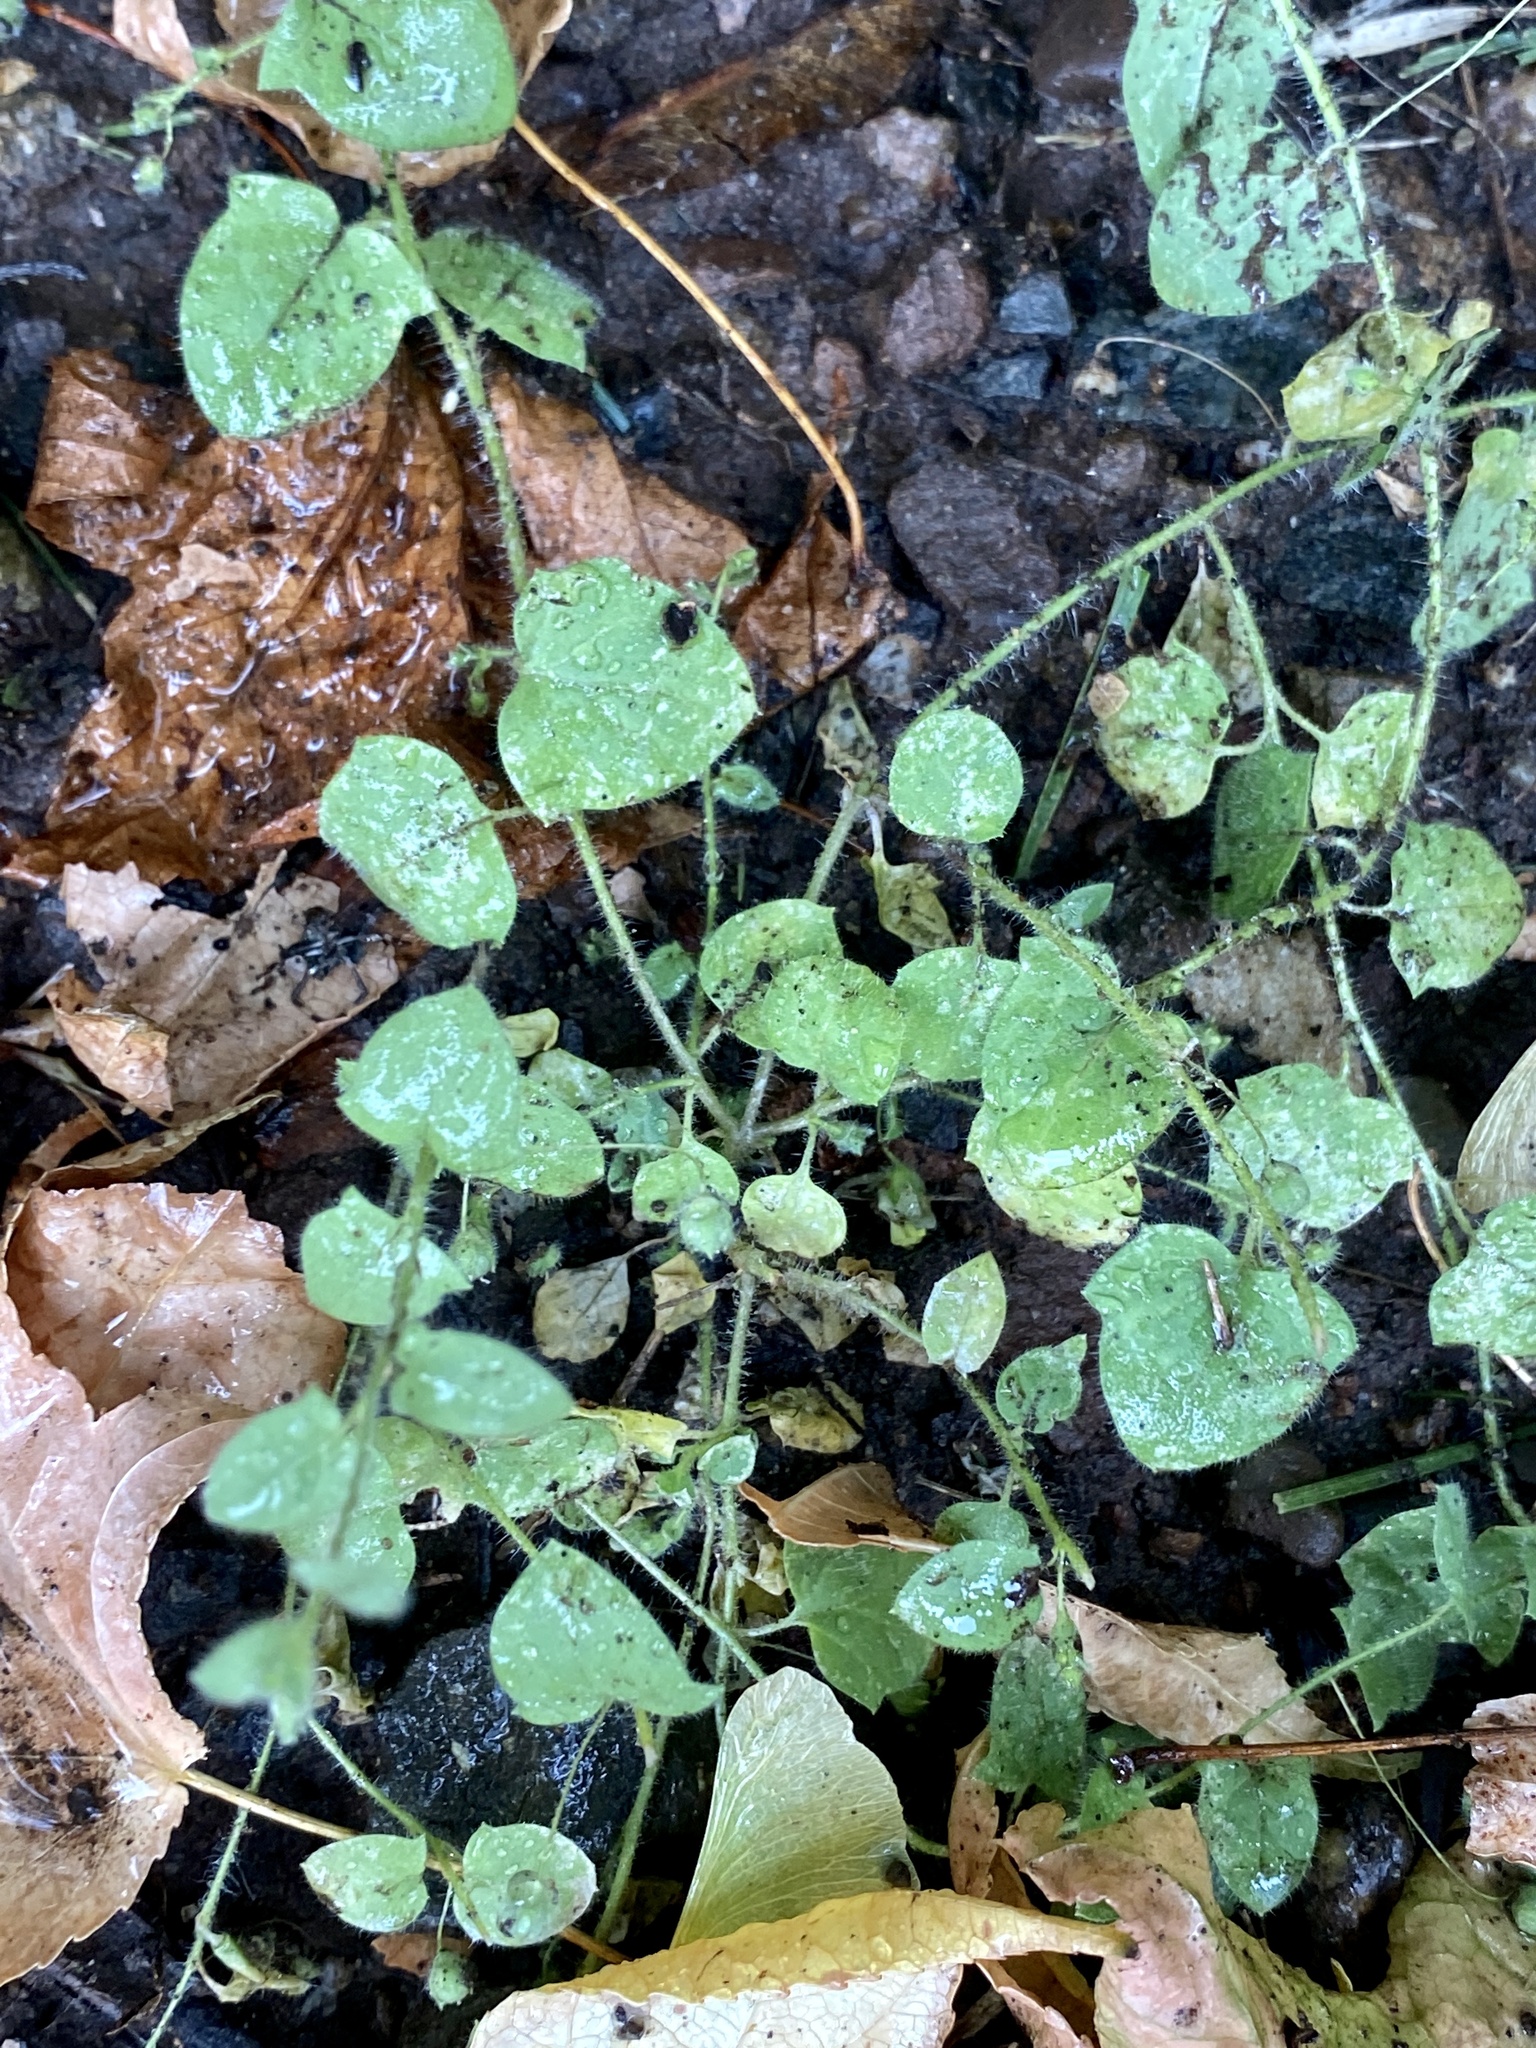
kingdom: Plantae
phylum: Tracheophyta
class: Magnoliopsida
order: Lamiales
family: Plantaginaceae
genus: Kickxia
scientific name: Kickxia elatine
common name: Sharp-leaved fluellen
